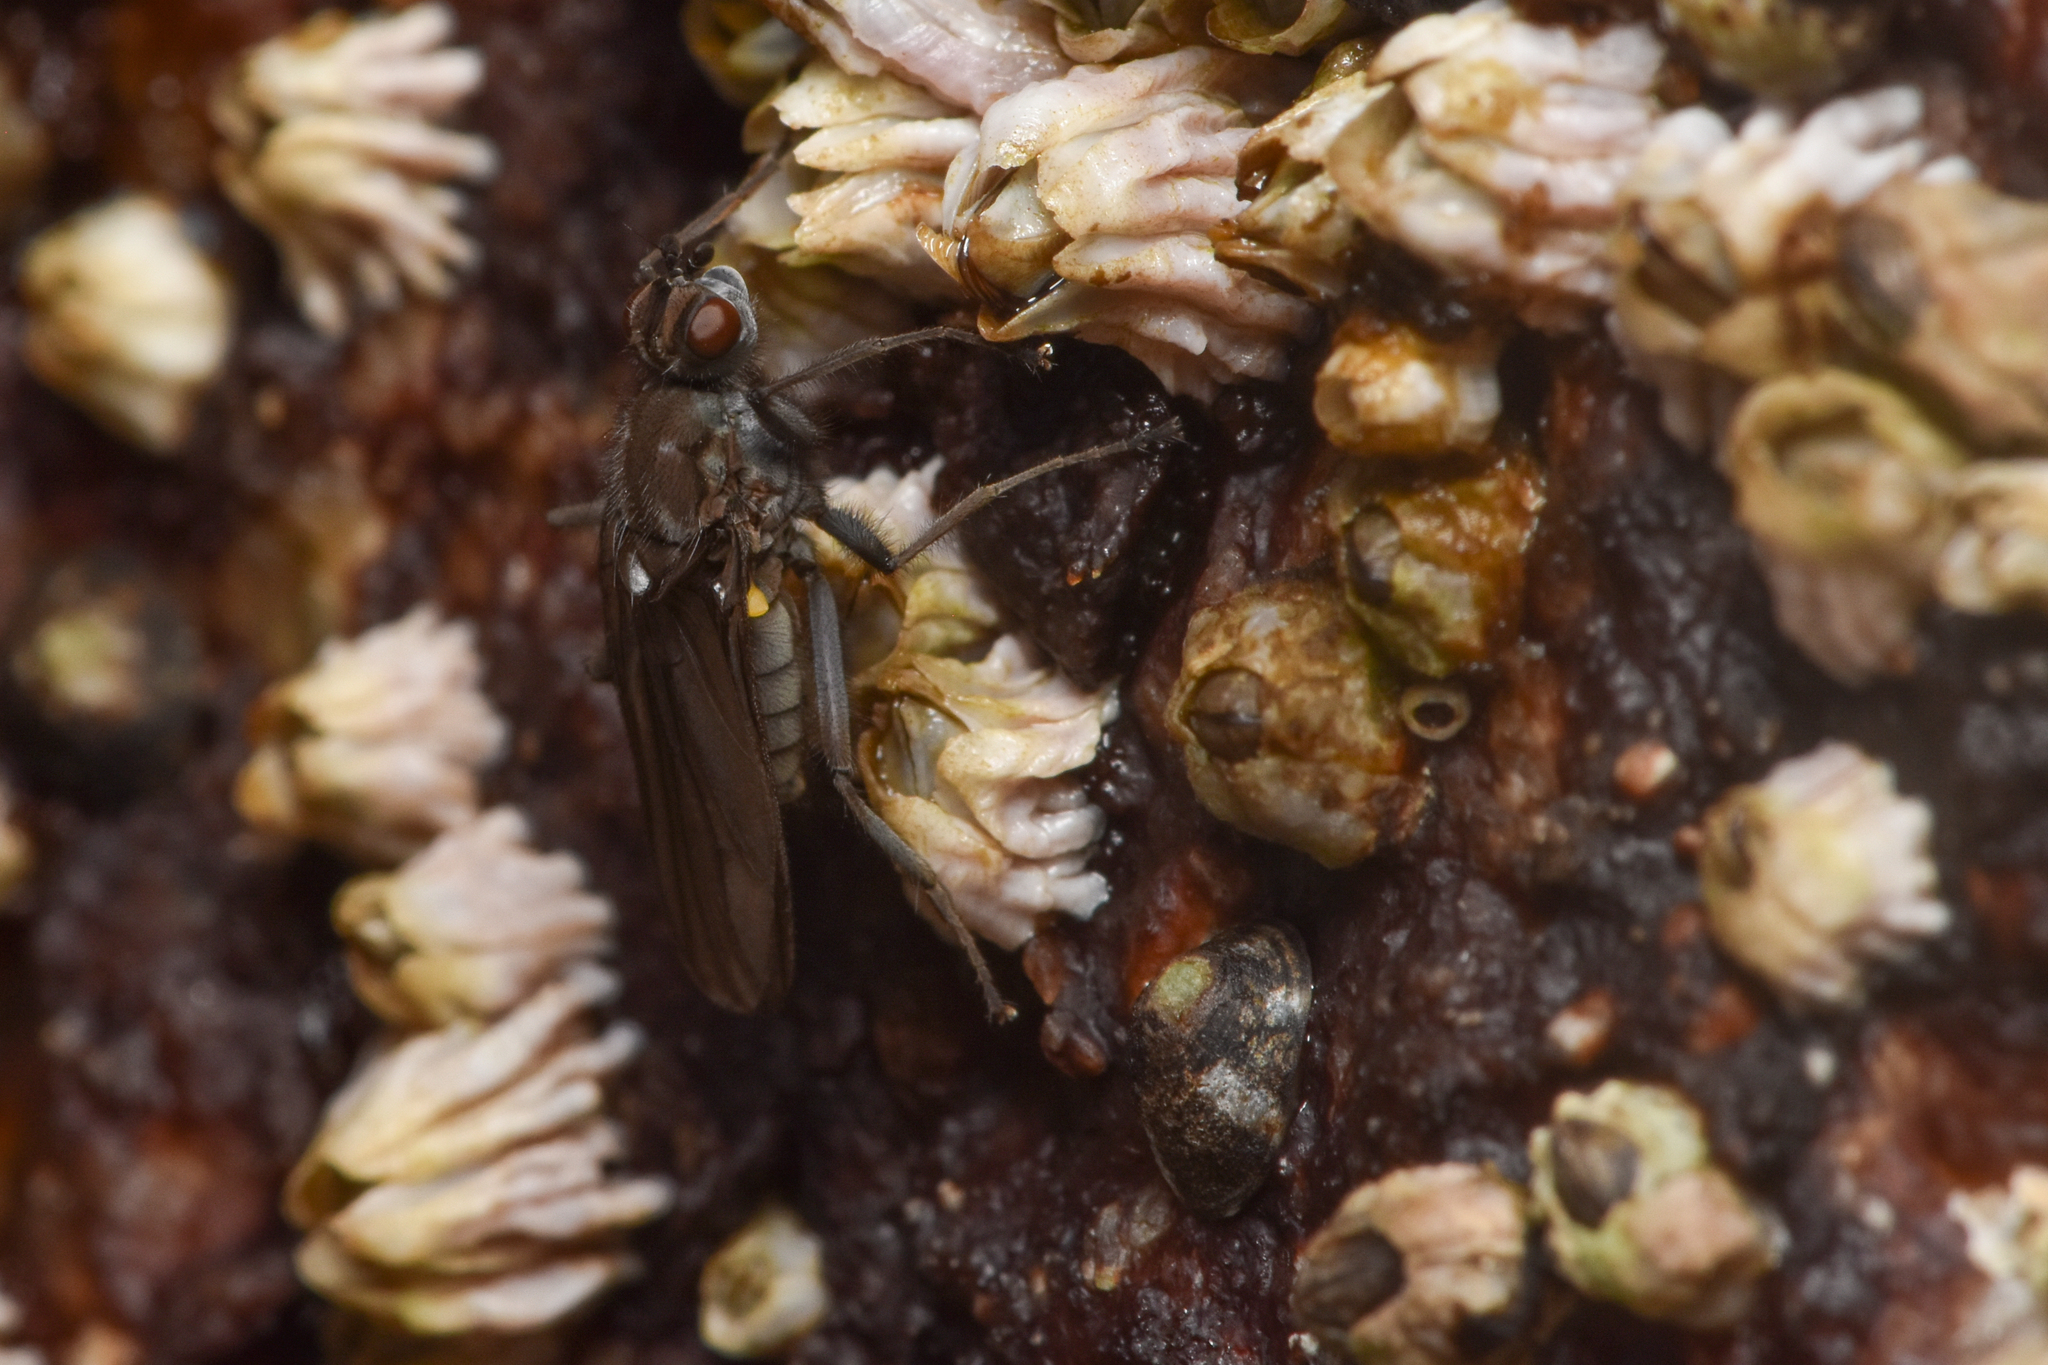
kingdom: Animalia
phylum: Arthropoda
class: Insecta
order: Diptera
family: Dryomyzidae
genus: Oedoparena
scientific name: Oedoparena glauca
